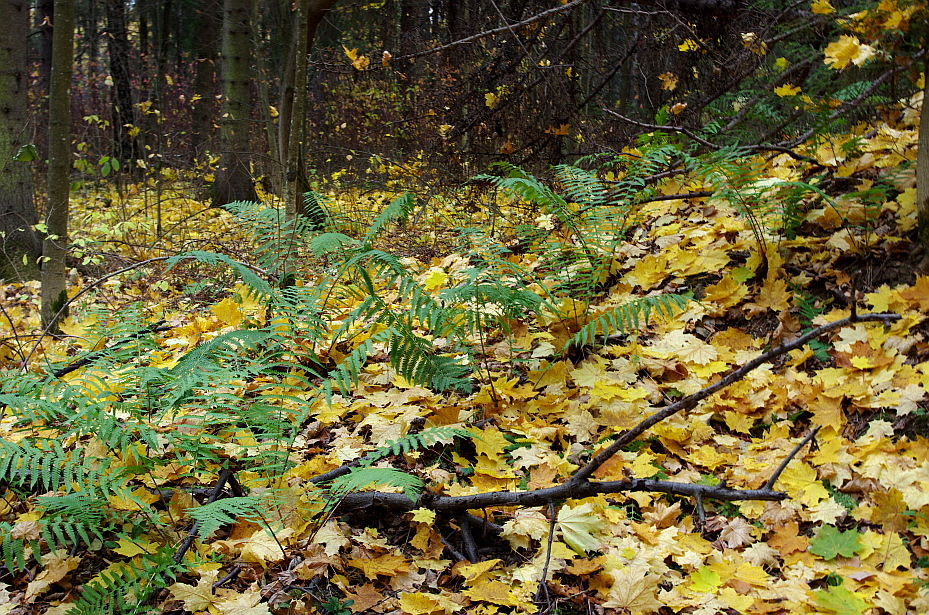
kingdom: Plantae
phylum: Tracheophyta
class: Polypodiopsida
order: Polypodiales
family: Dryopteridaceae
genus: Dryopteris
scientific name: Dryopteris filix-mas
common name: Male fern
